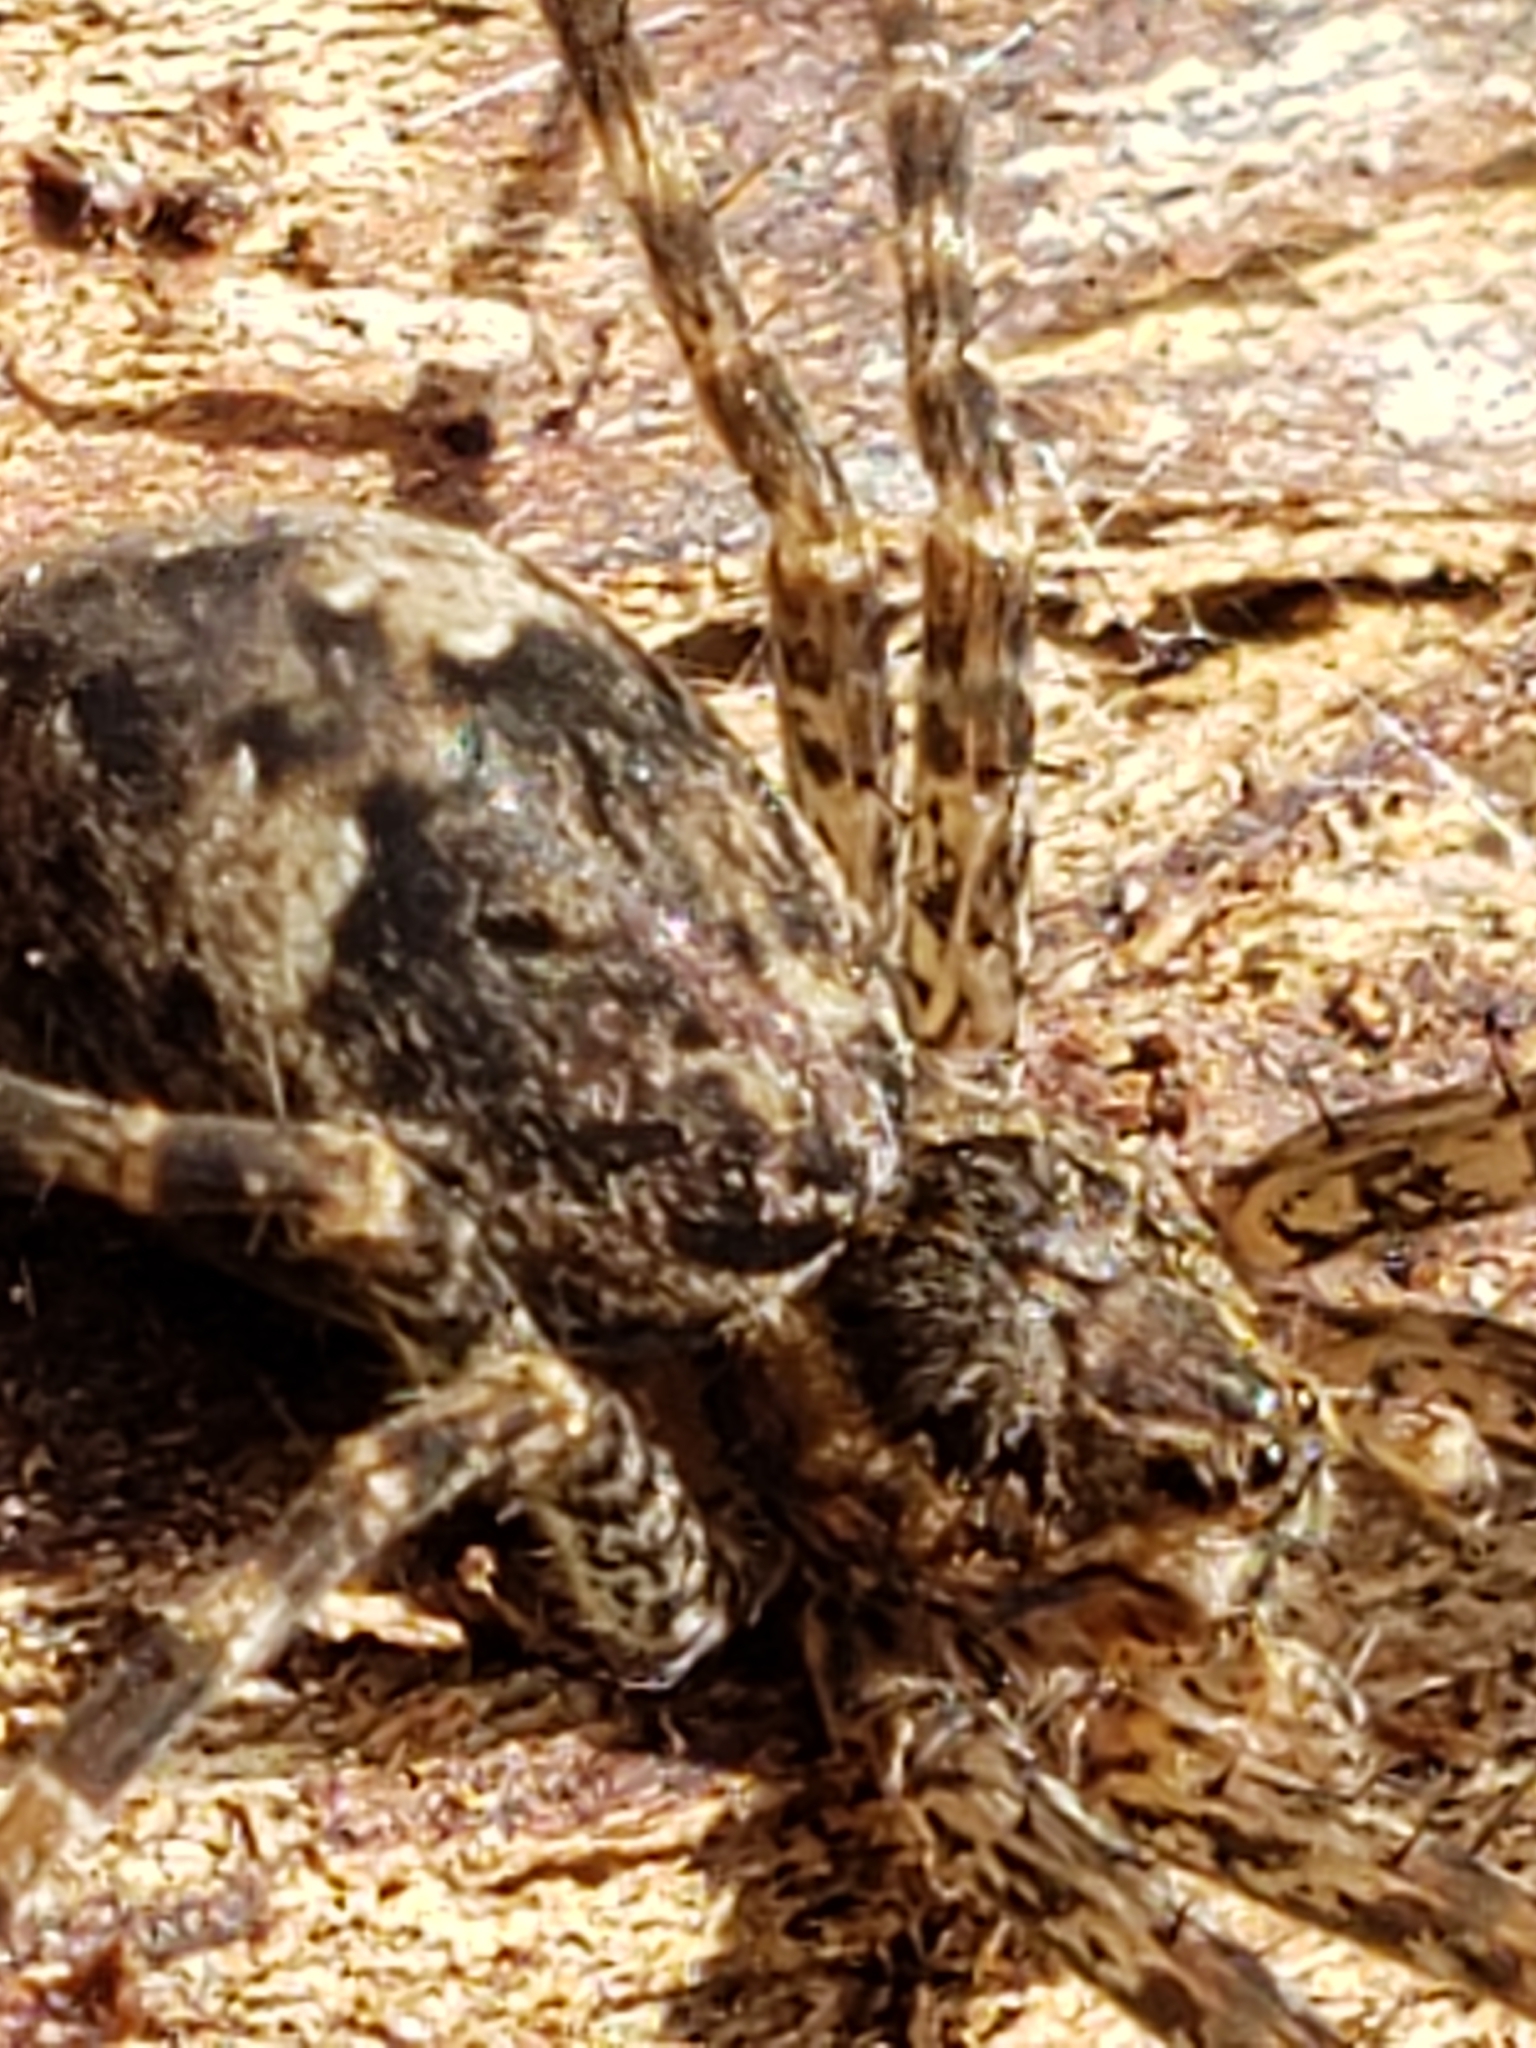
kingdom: Animalia
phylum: Arthropoda
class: Arachnida
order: Araneae
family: Pisauridae
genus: Dolomedes
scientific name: Dolomedes tenebrosus
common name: Dark fishing spider
